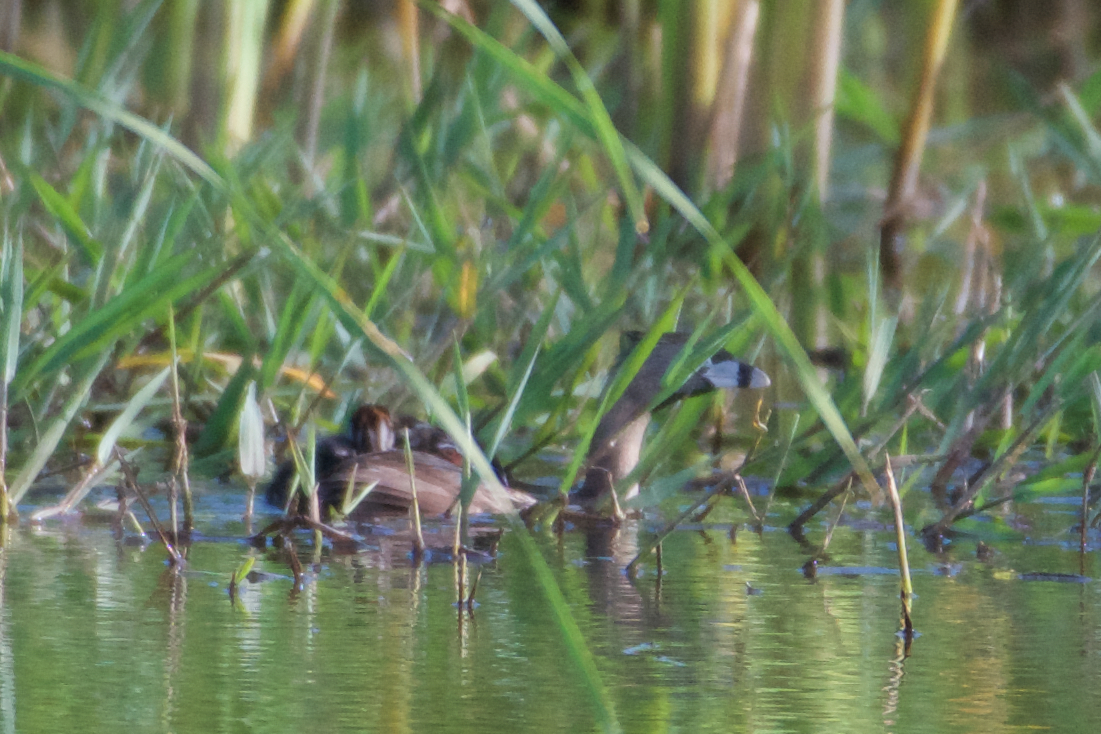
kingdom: Animalia
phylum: Chordata
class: Aves
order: Podicipediformes
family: Podicipedidae
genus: Podilymbus
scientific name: Podilymbus podiceps
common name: Pied-billed grebe
